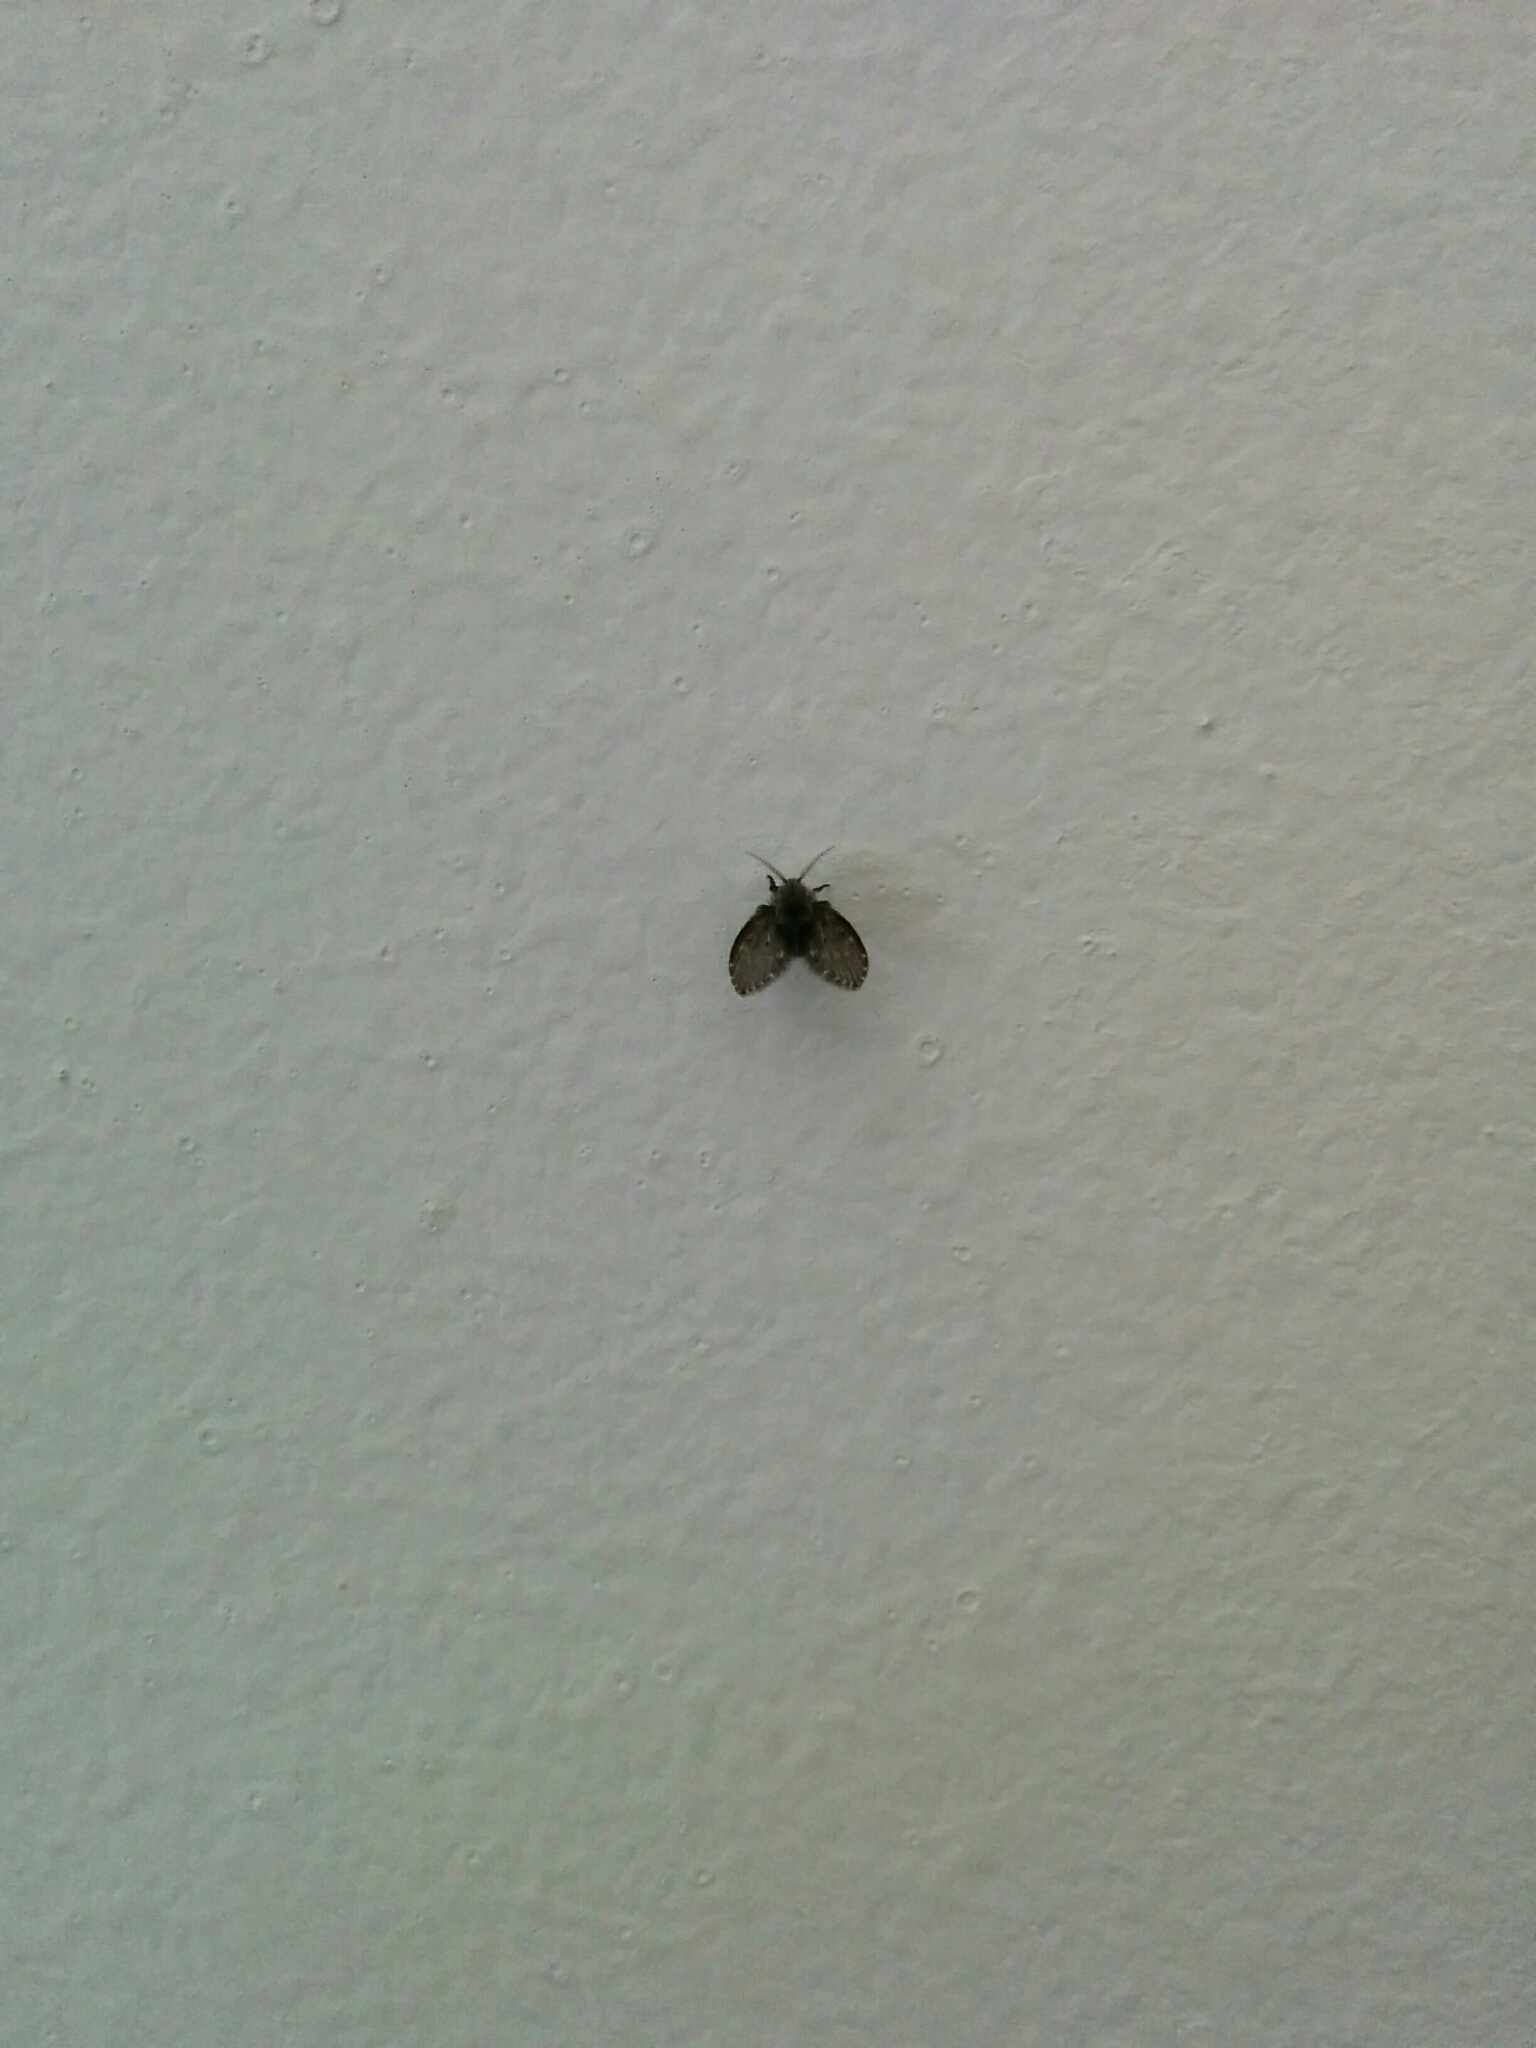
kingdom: Animalia
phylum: Arthropoda
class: Insecta
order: Diptera
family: Psychodidae
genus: Clogmia
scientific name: Clogmia albipunctatus
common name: White-spotted moth fly
